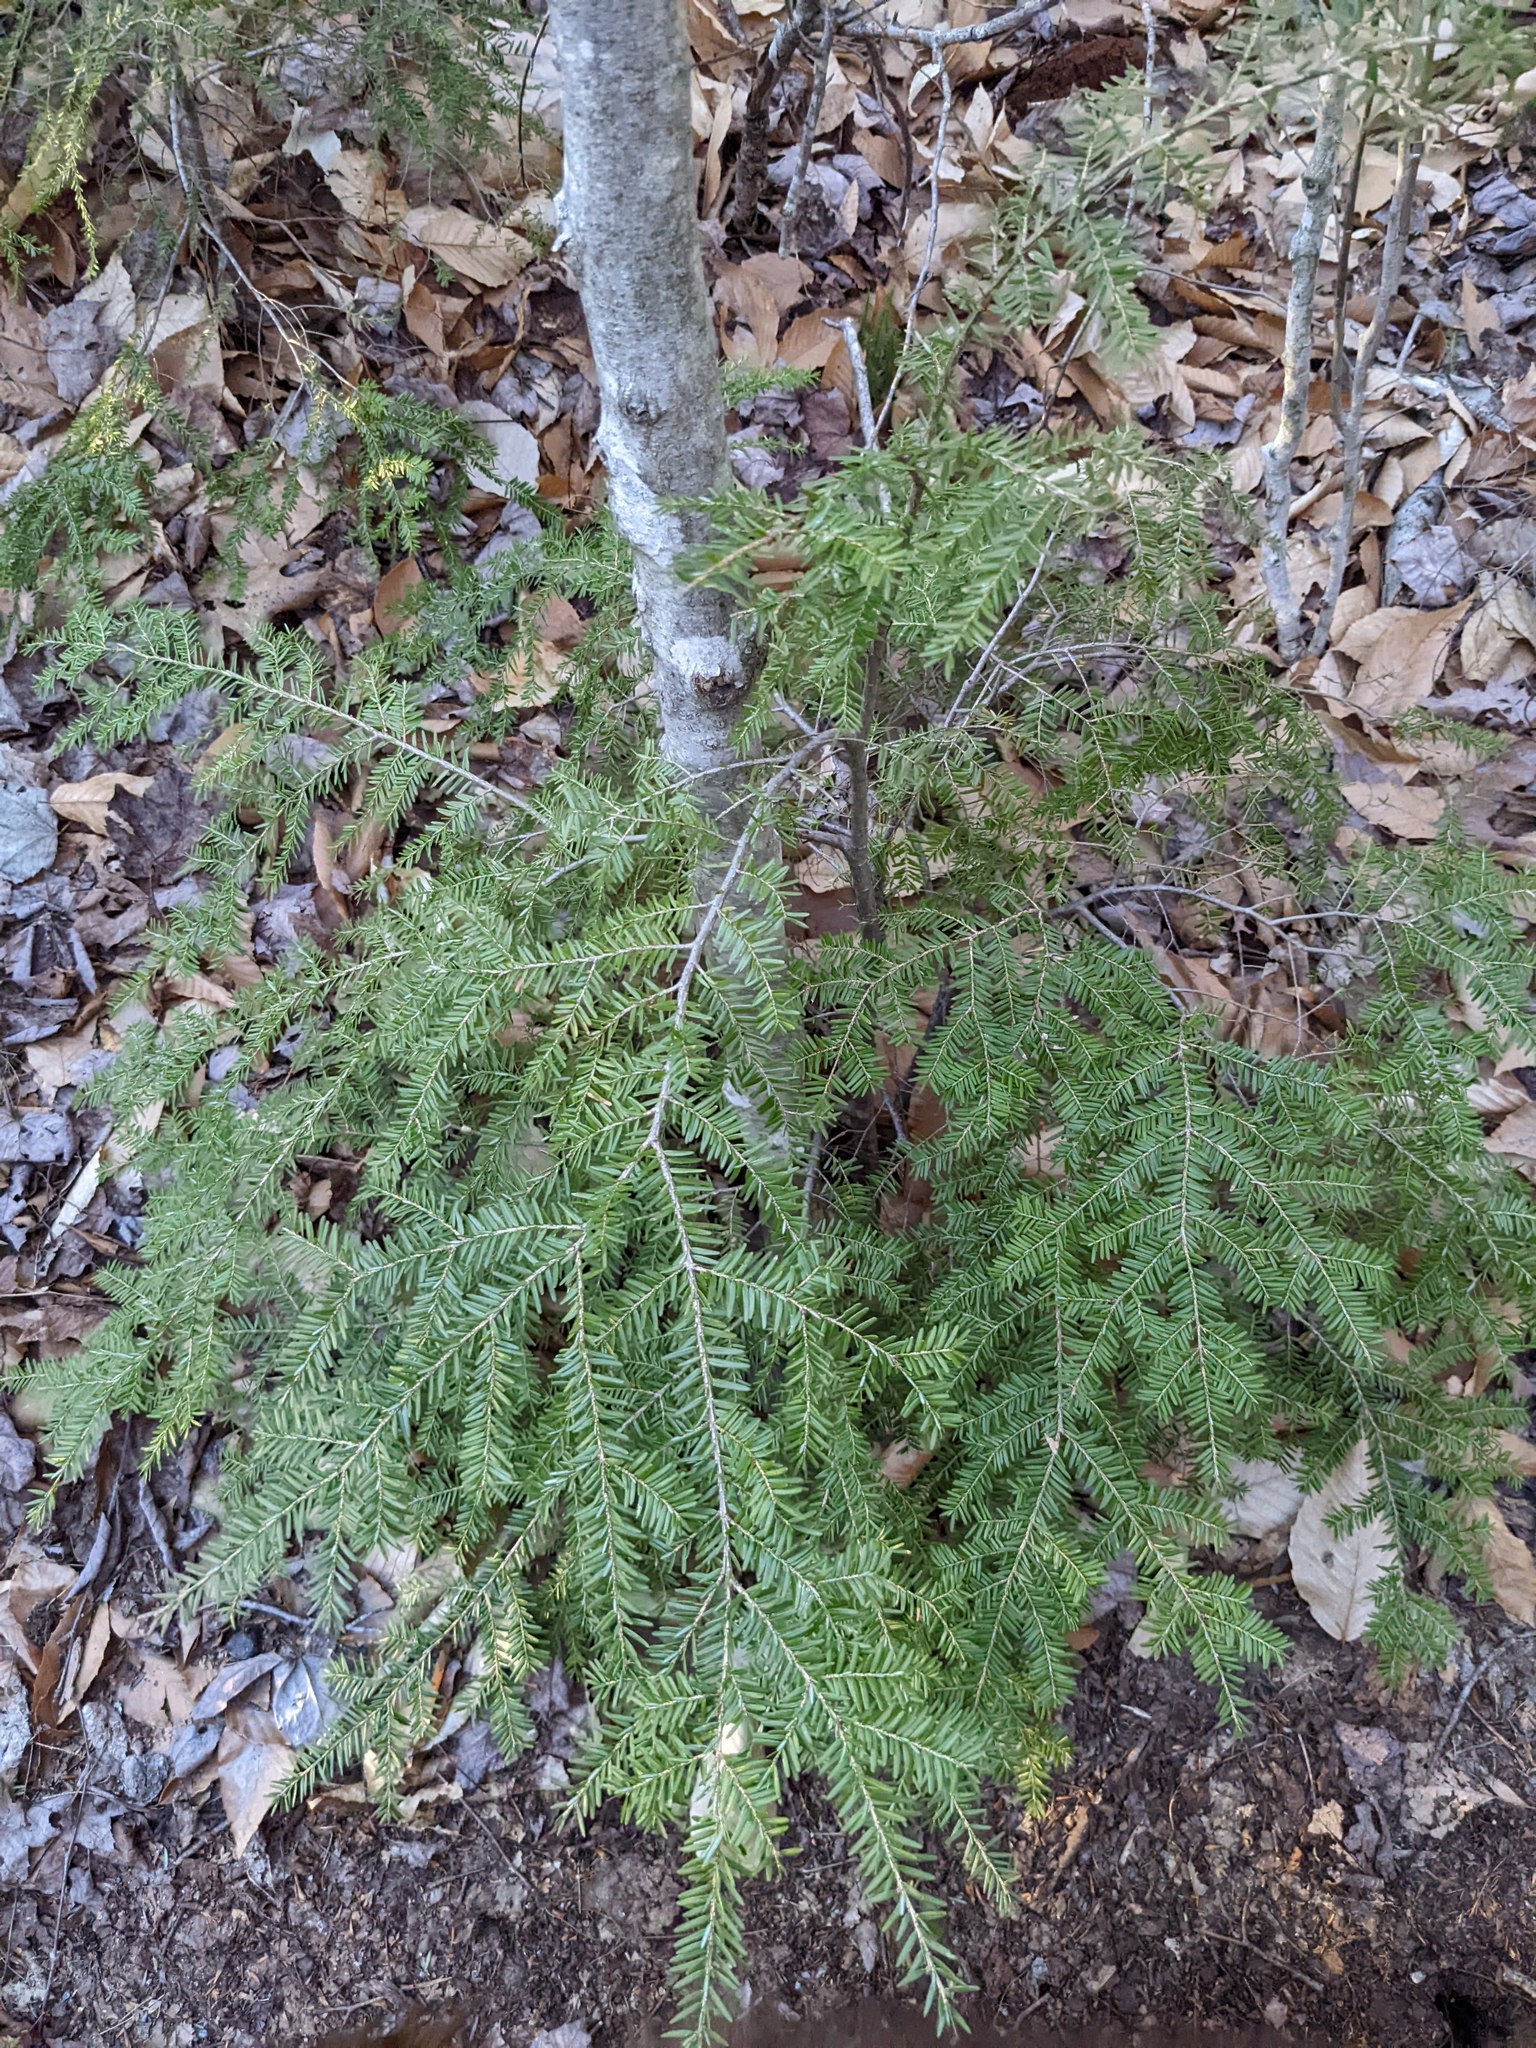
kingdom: Plantae
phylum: Tracheophyta
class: Pinopsida
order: Pinales
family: Pinaceae
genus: Tsuga
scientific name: Tsuga canadensis
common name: Eastern hemlock
